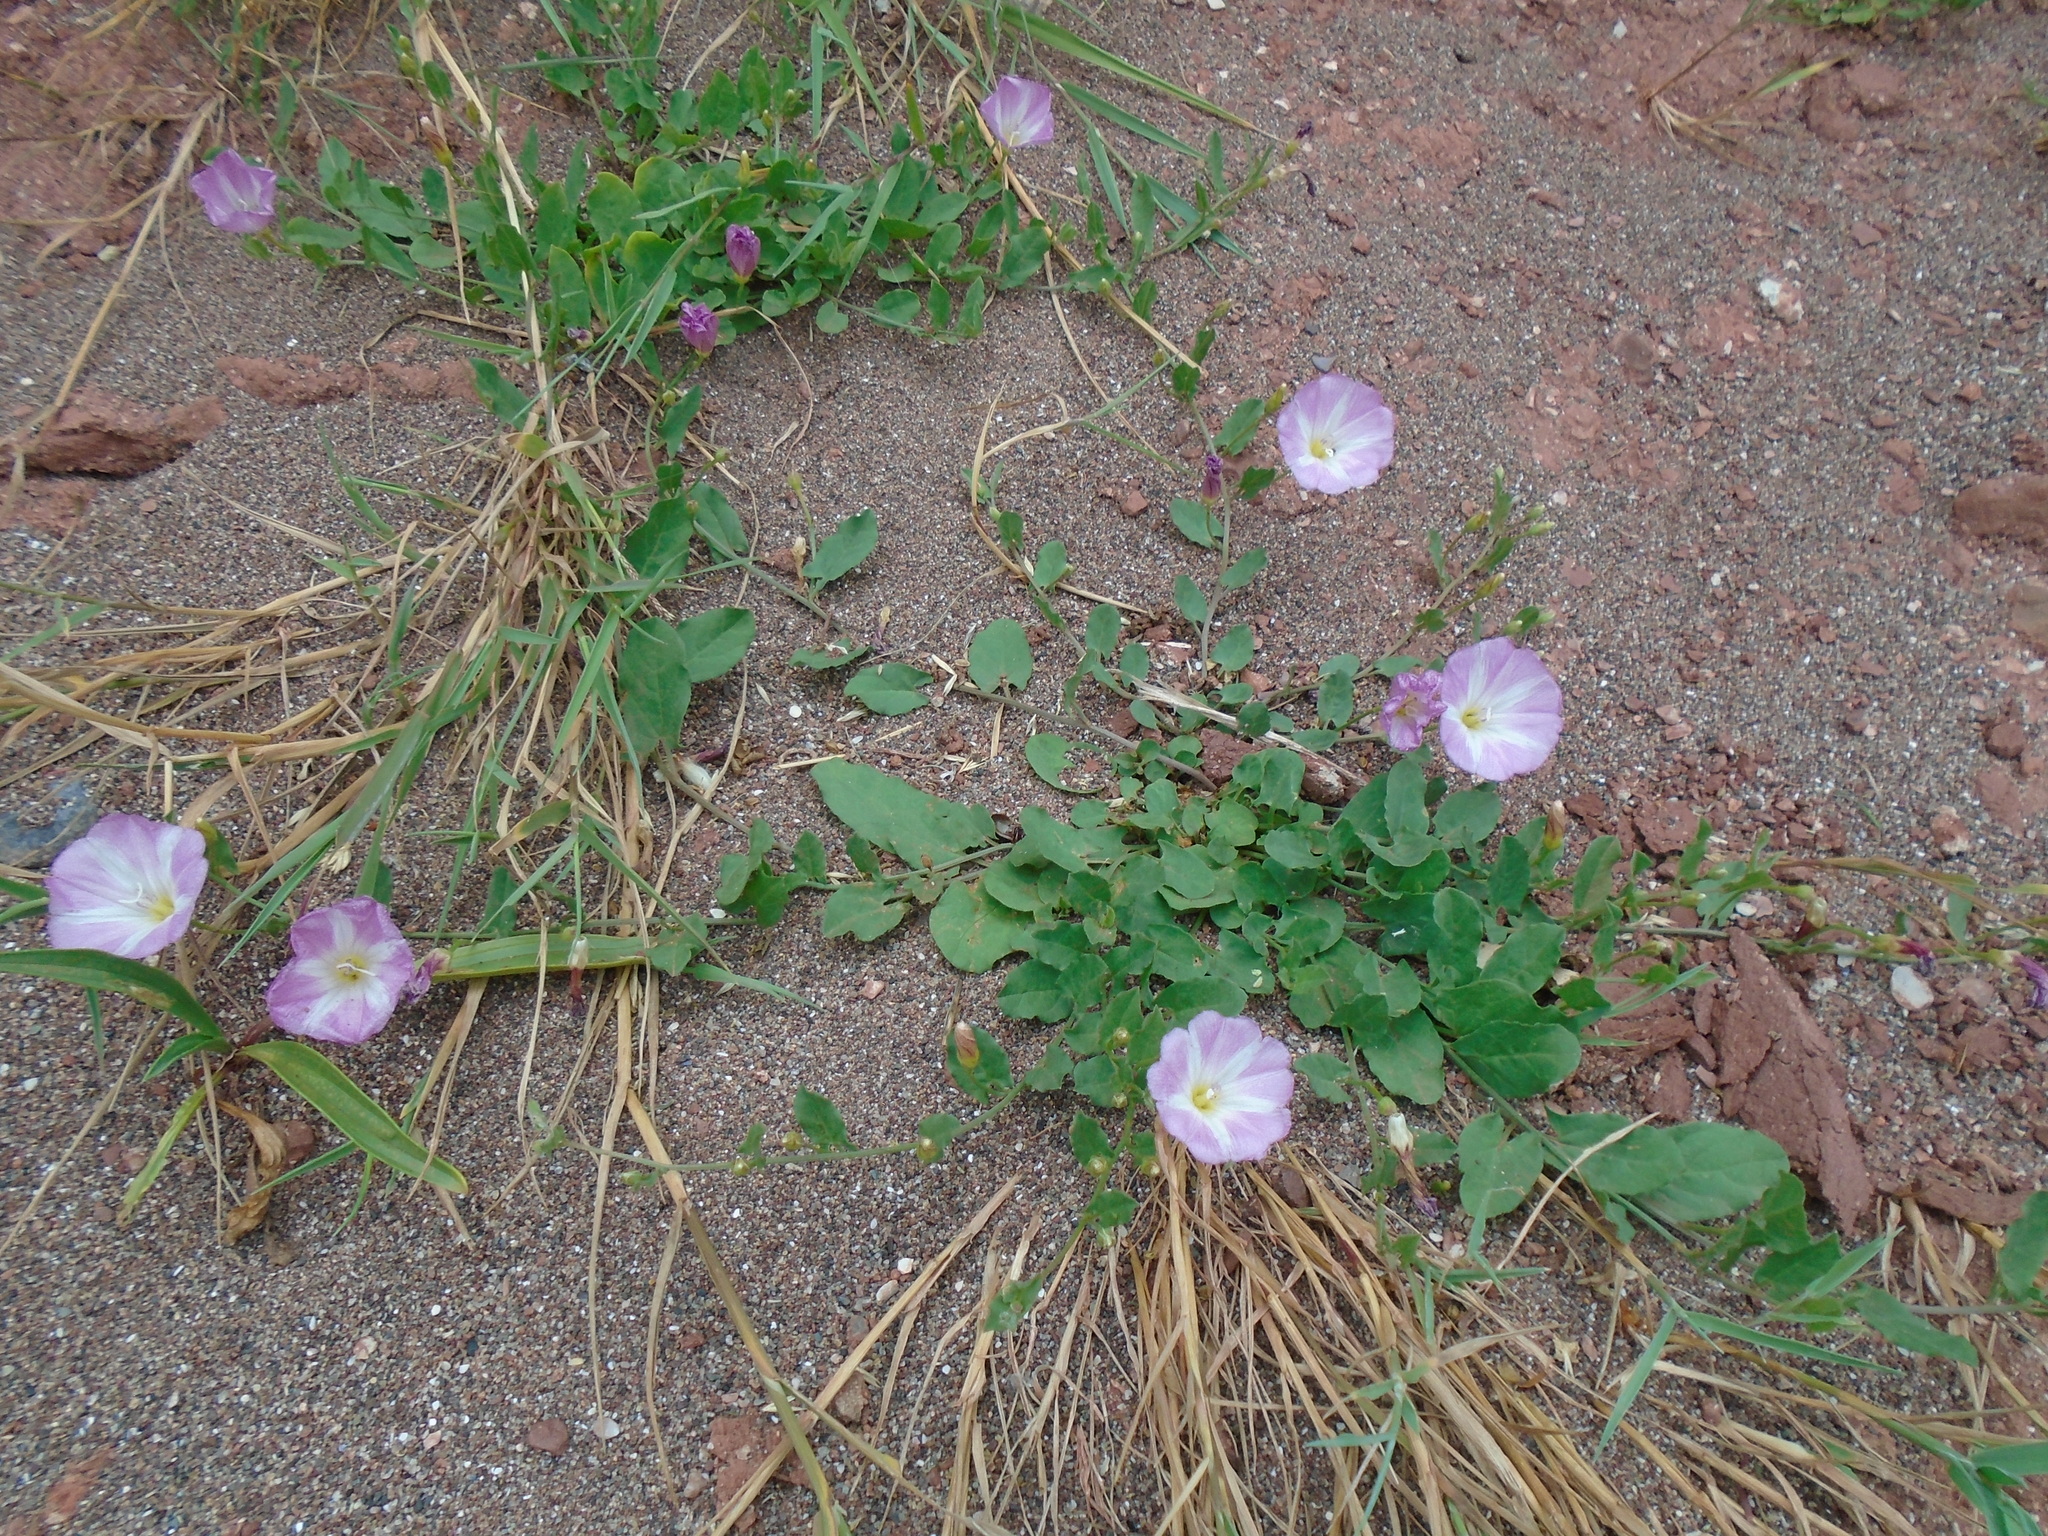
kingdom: Plantae
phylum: Tracheophyta
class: Magnoliopsida
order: Solanales
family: Convolvulaceae
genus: Convolvulus
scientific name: Convolvulus arvensis
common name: Field bindweed
